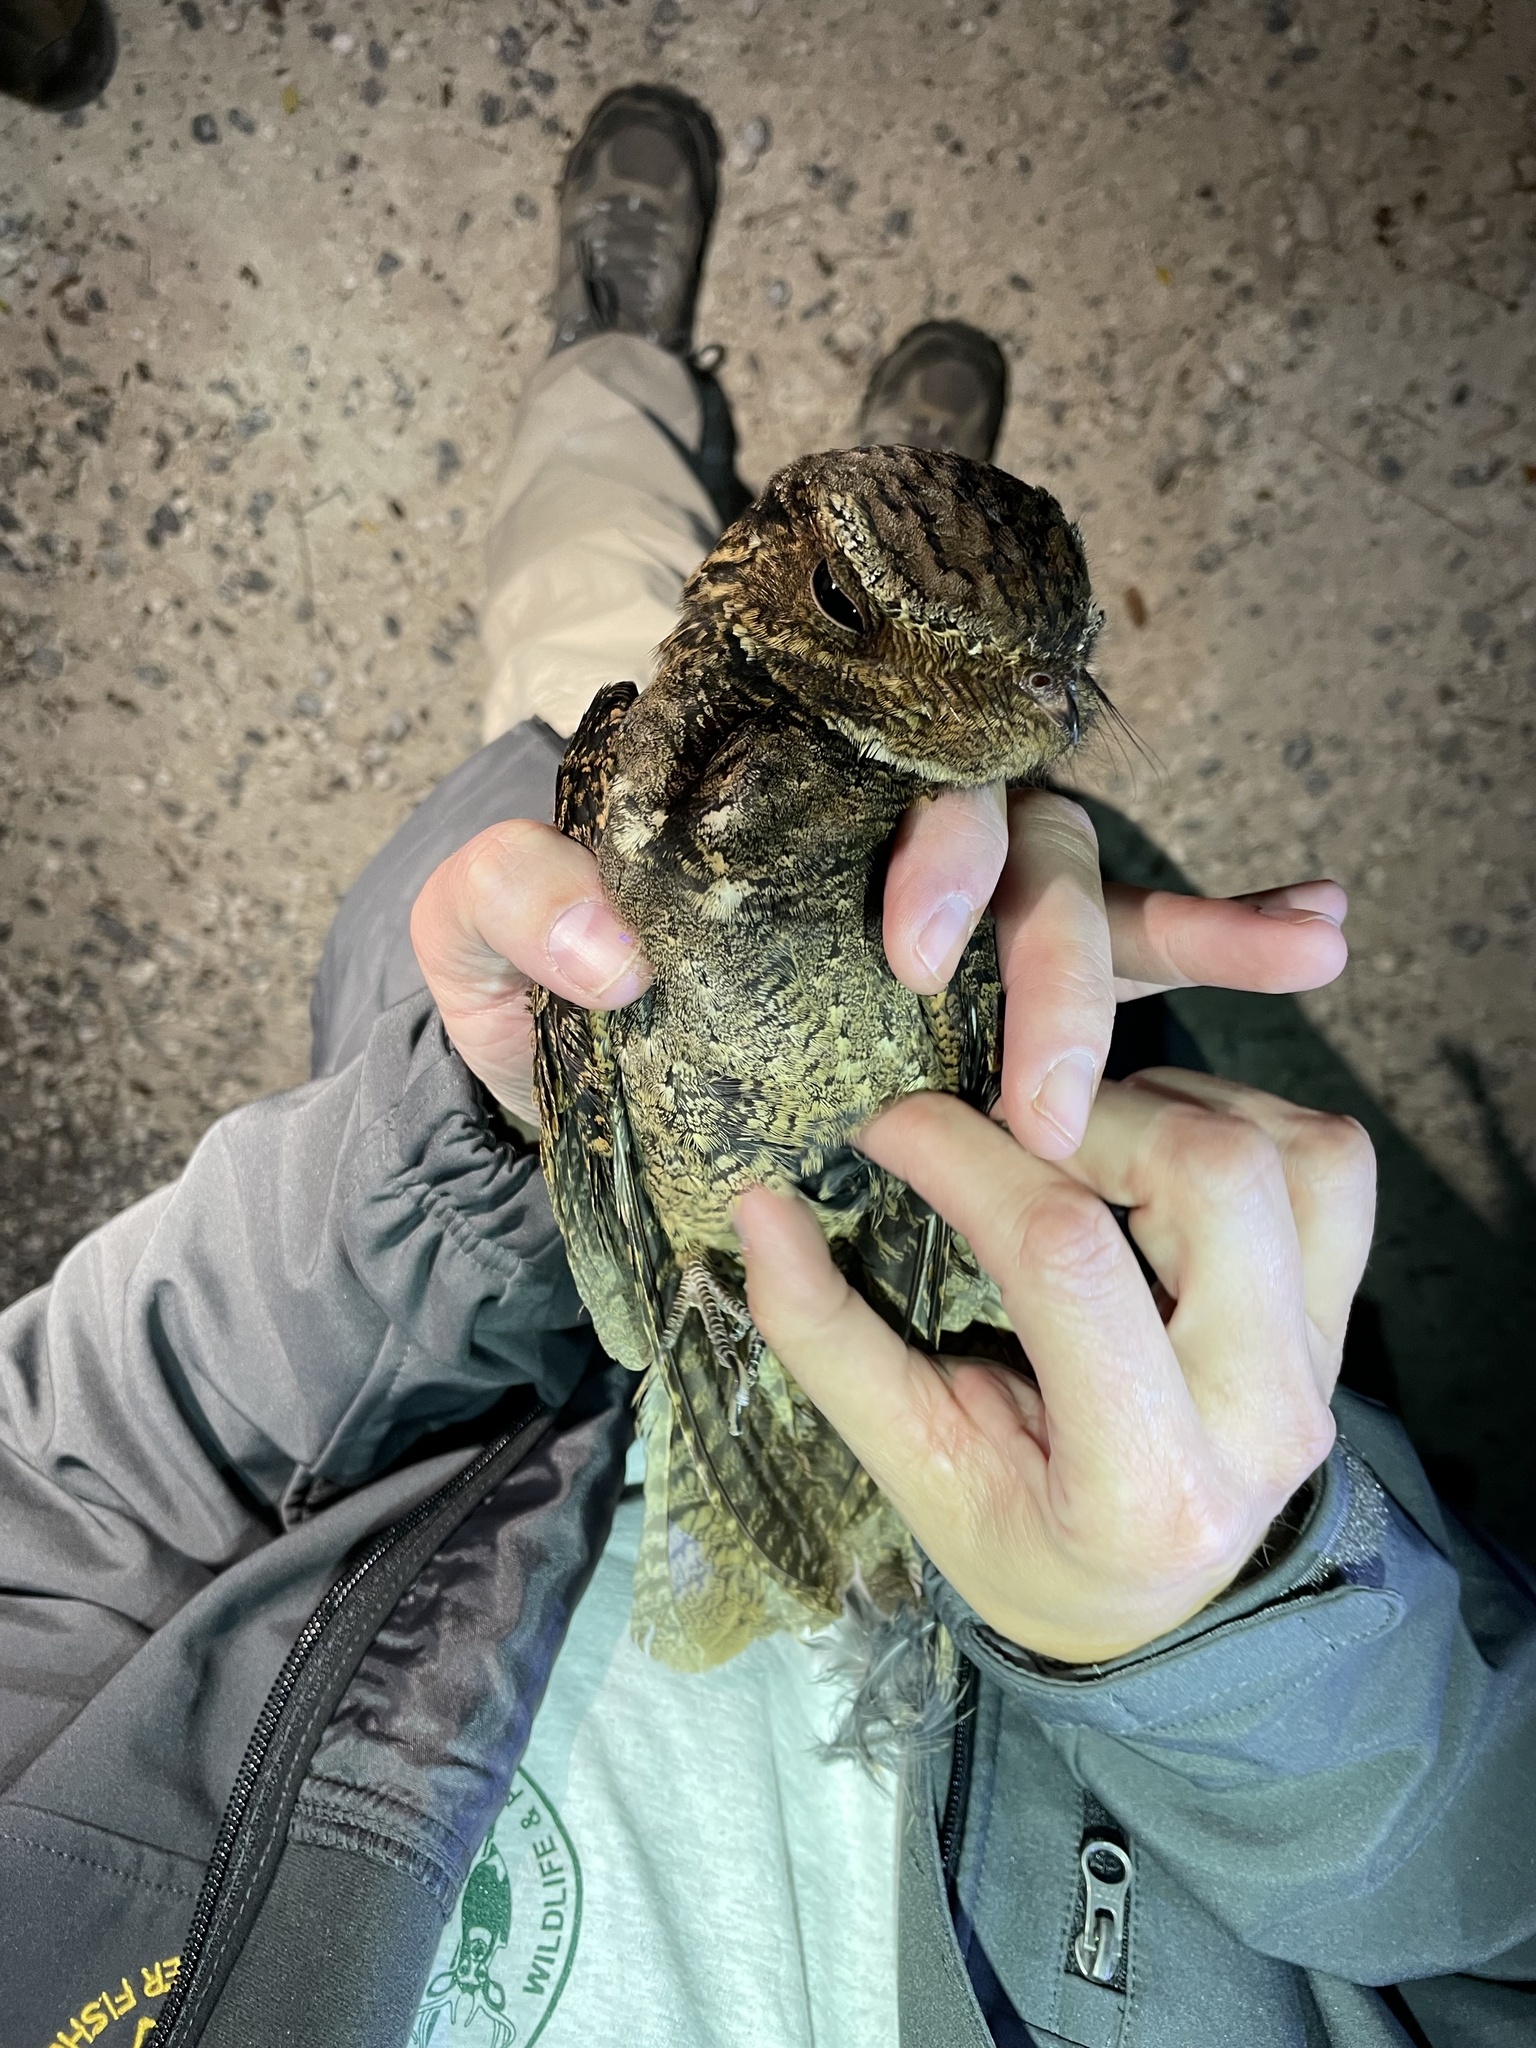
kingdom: Animalia
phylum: Chordata
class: Aves
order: Caprimulgiformes
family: Caprimulgidae
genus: Antrostomus
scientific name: Antrostomus carolinensis
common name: Chuck-will's-widow
